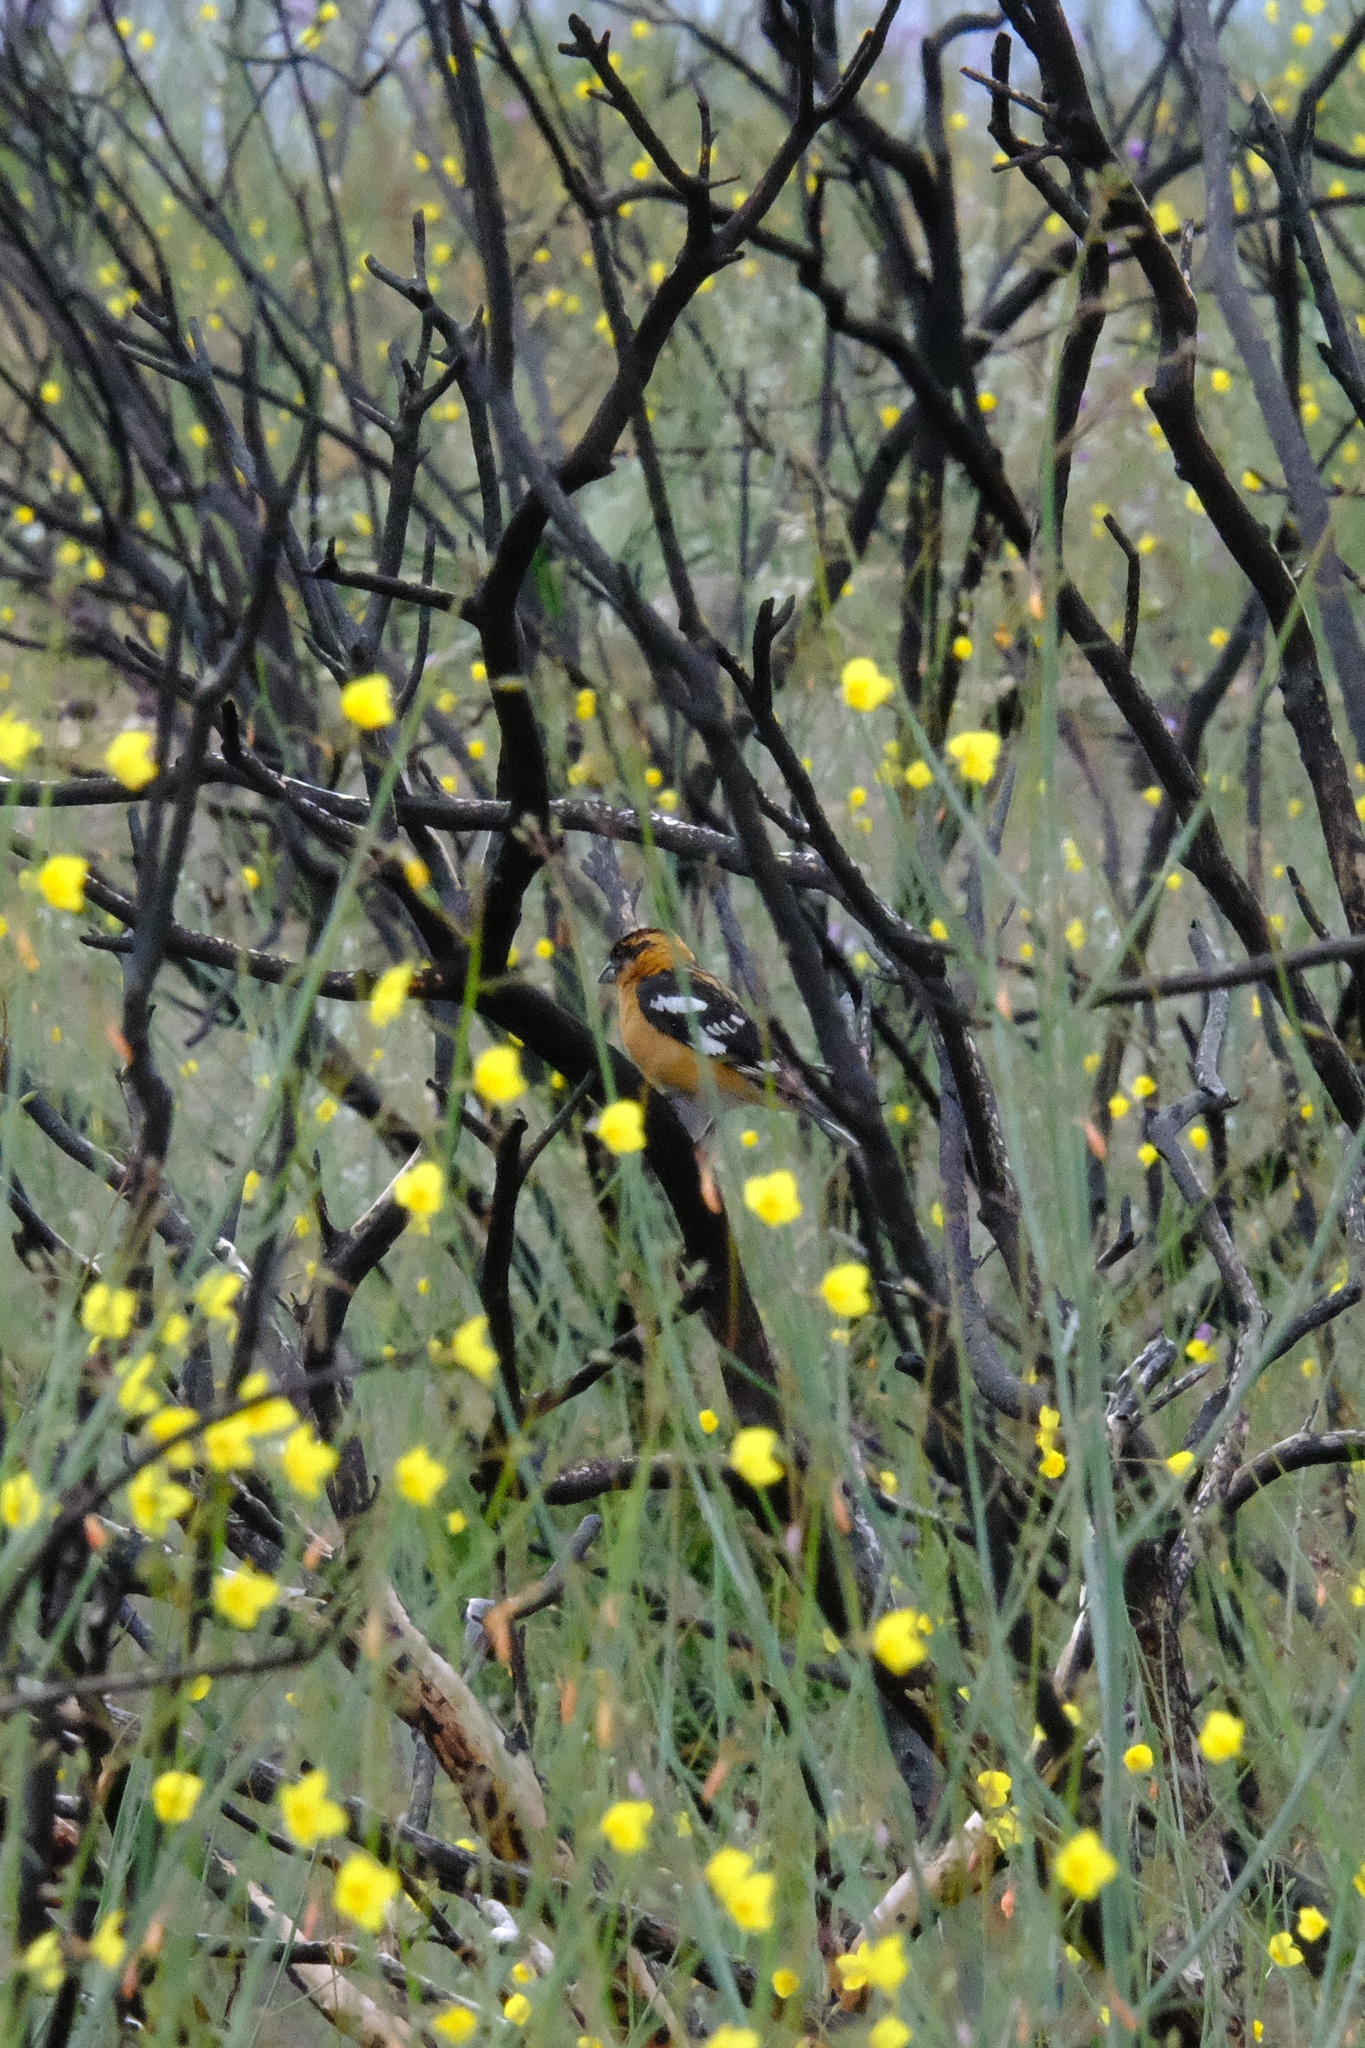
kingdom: Animalia
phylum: Chordata
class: Aves
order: Passeriformes
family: Cardinalidae
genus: Pheucticus
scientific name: Pheucticus melanocephalus
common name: Black-headed grosbeak
